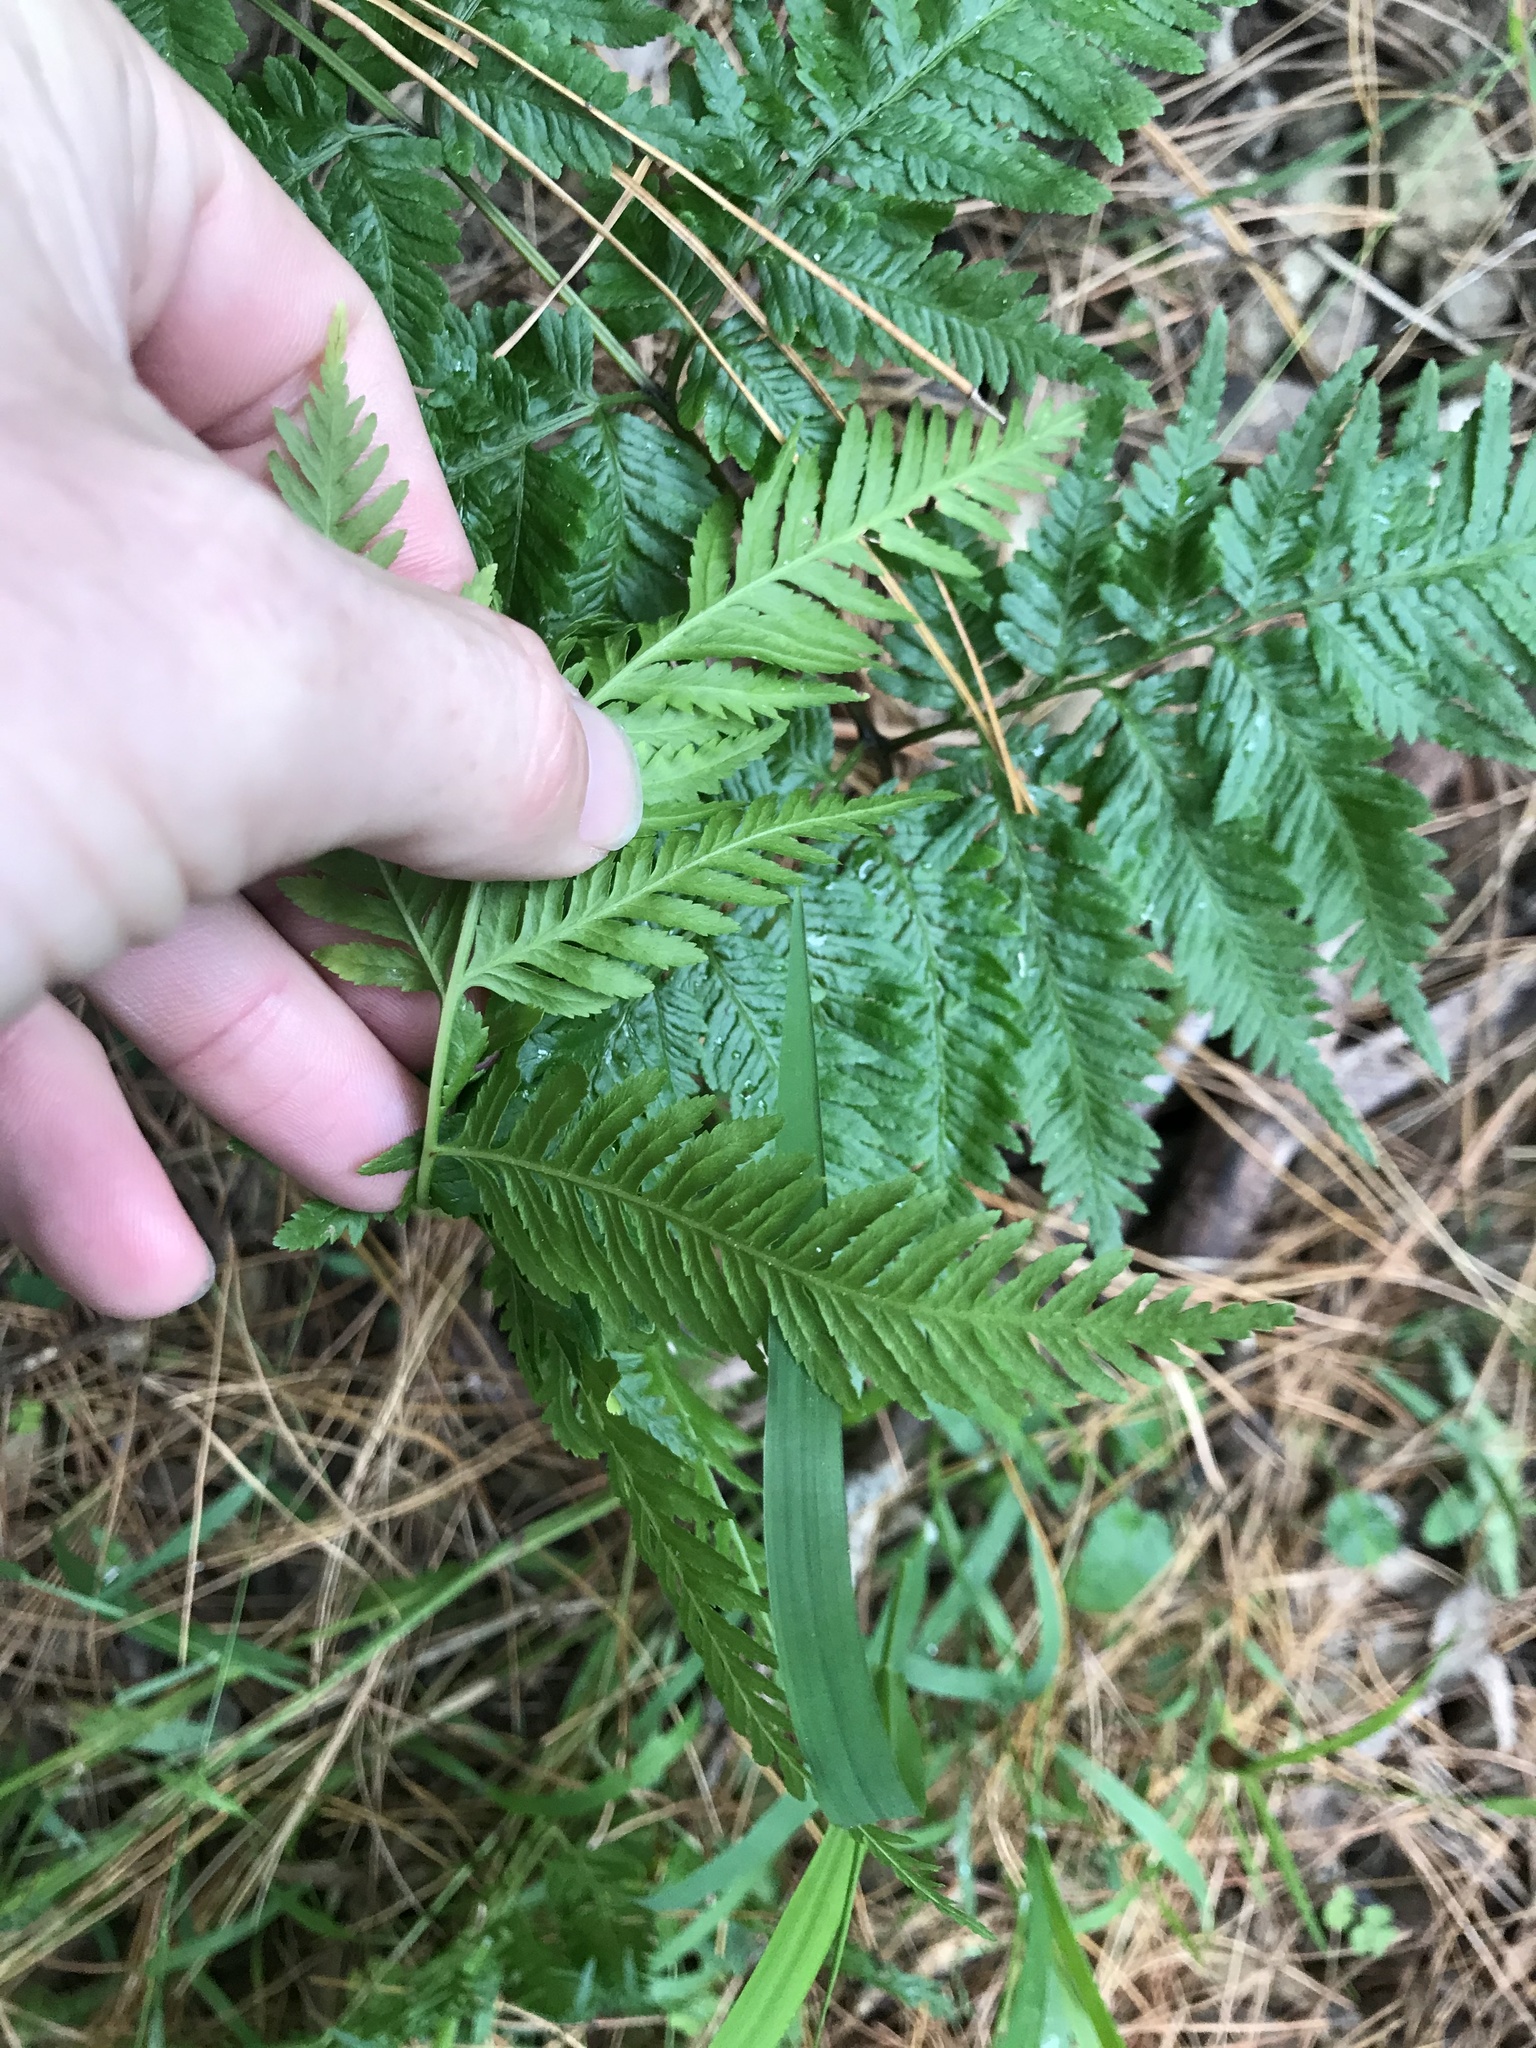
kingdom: Plantae
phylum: Tracheophyta
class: Polypodiopsida
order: Polypodiales
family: Pteridaceae
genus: Pteris
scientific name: Pteris tremula
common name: Australian brake
